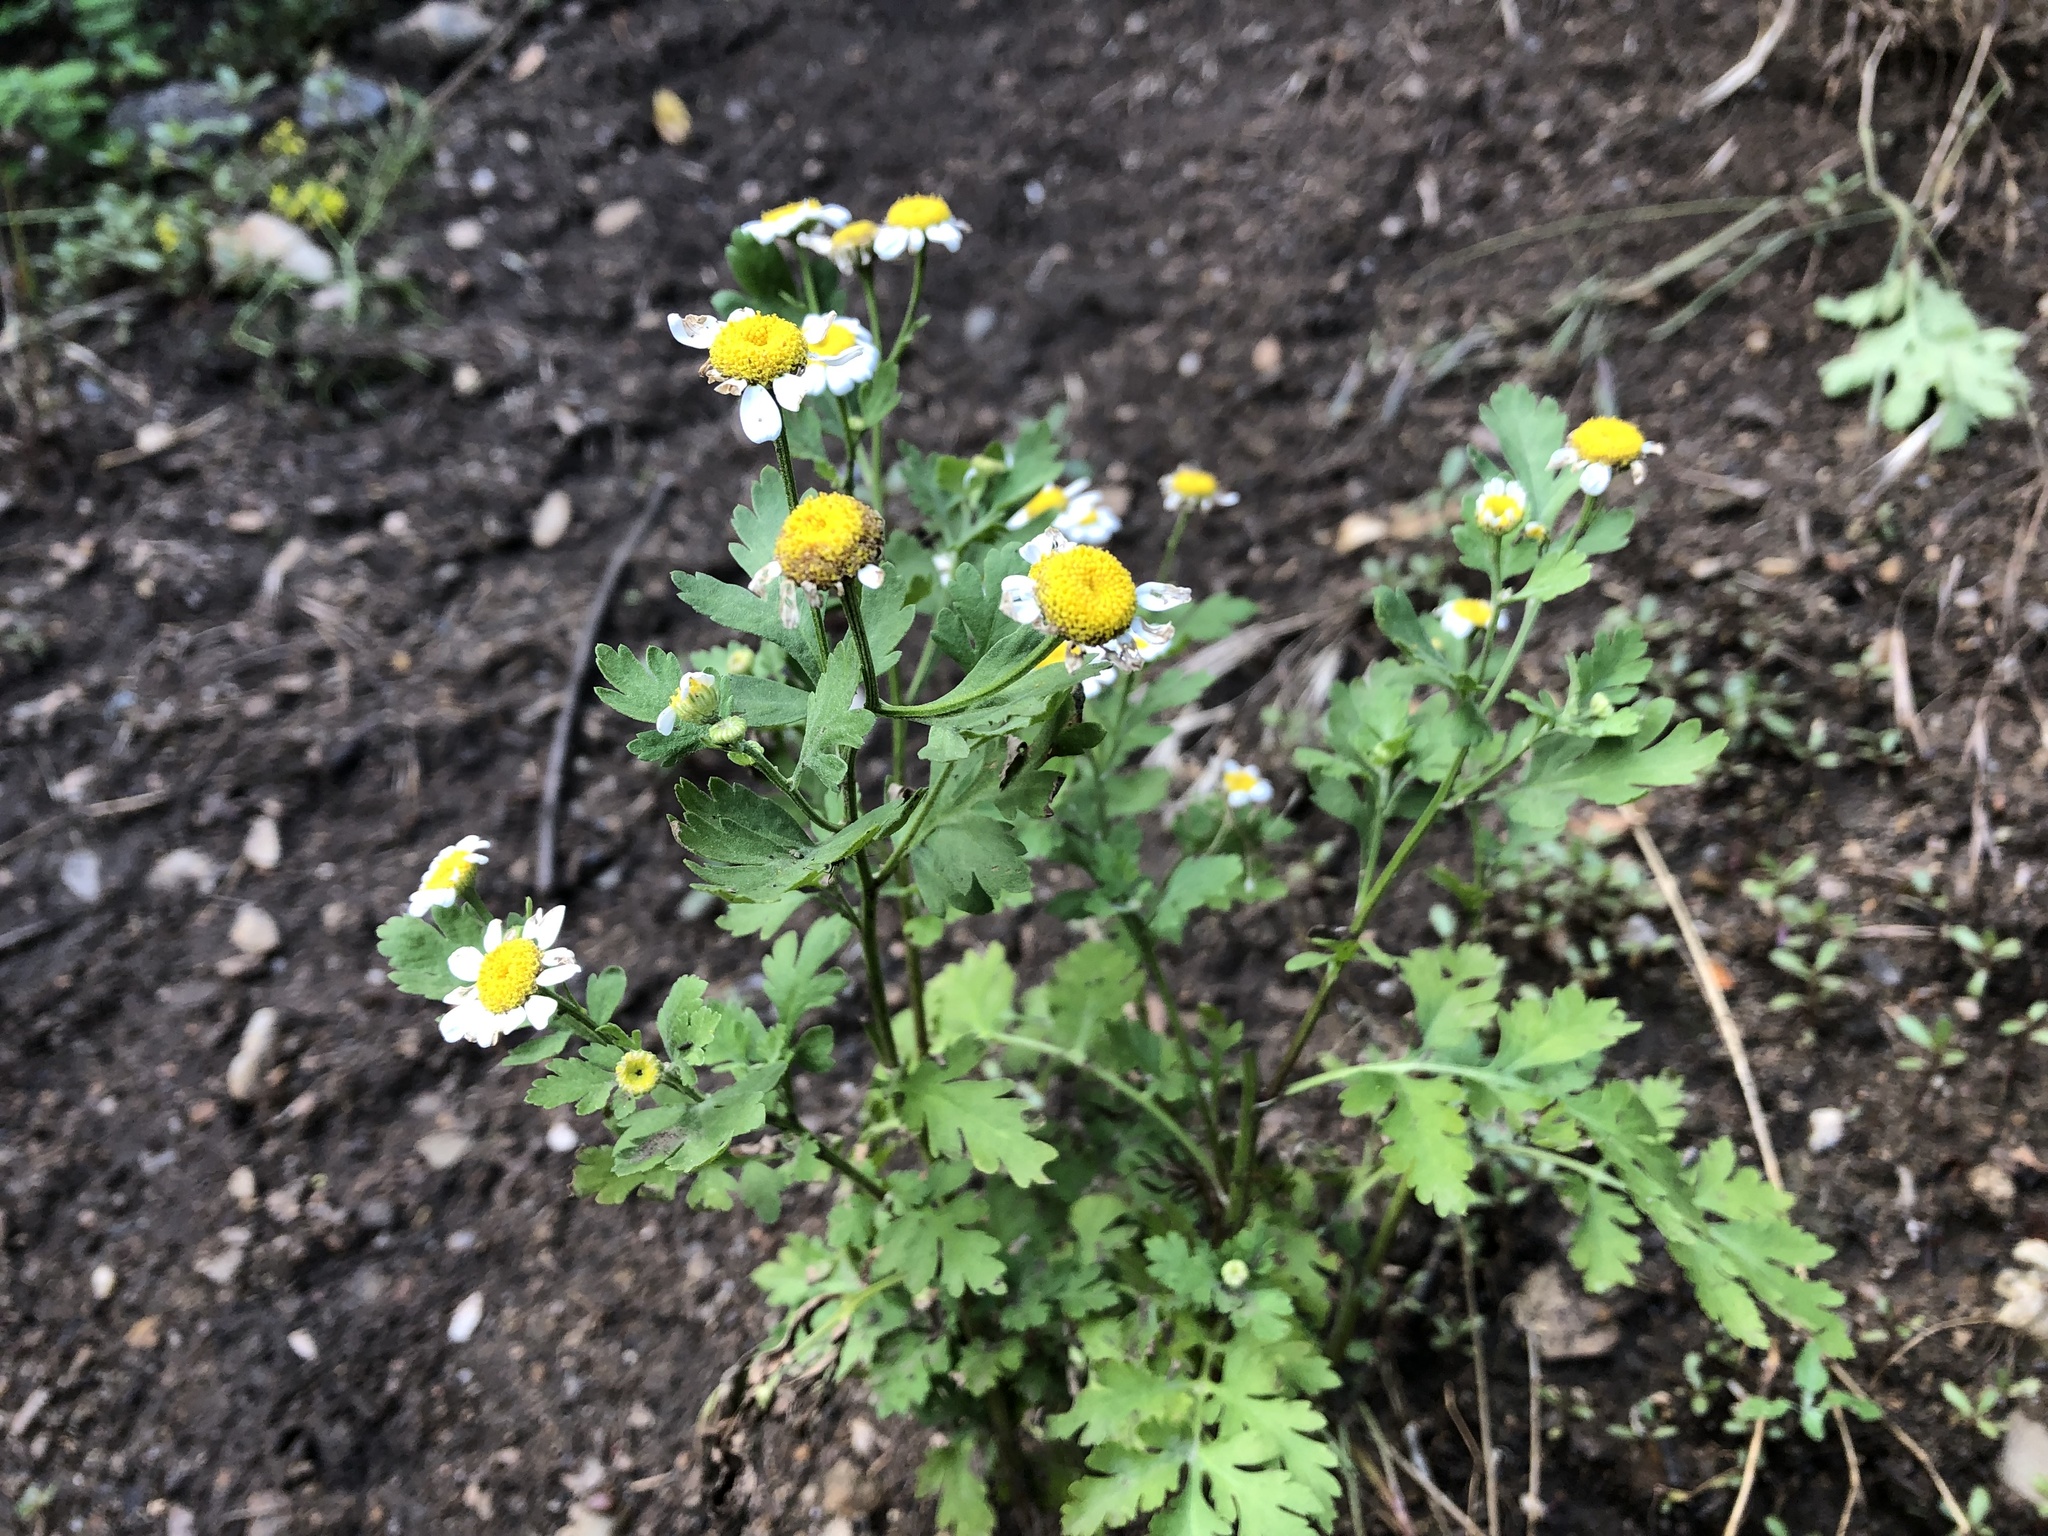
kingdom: Plantae
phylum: Tracheophyta
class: Magnoliopsida
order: Asterales
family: Asteraceae
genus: Tanacetum
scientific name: Tanacetum parthenium
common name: Feverfew
